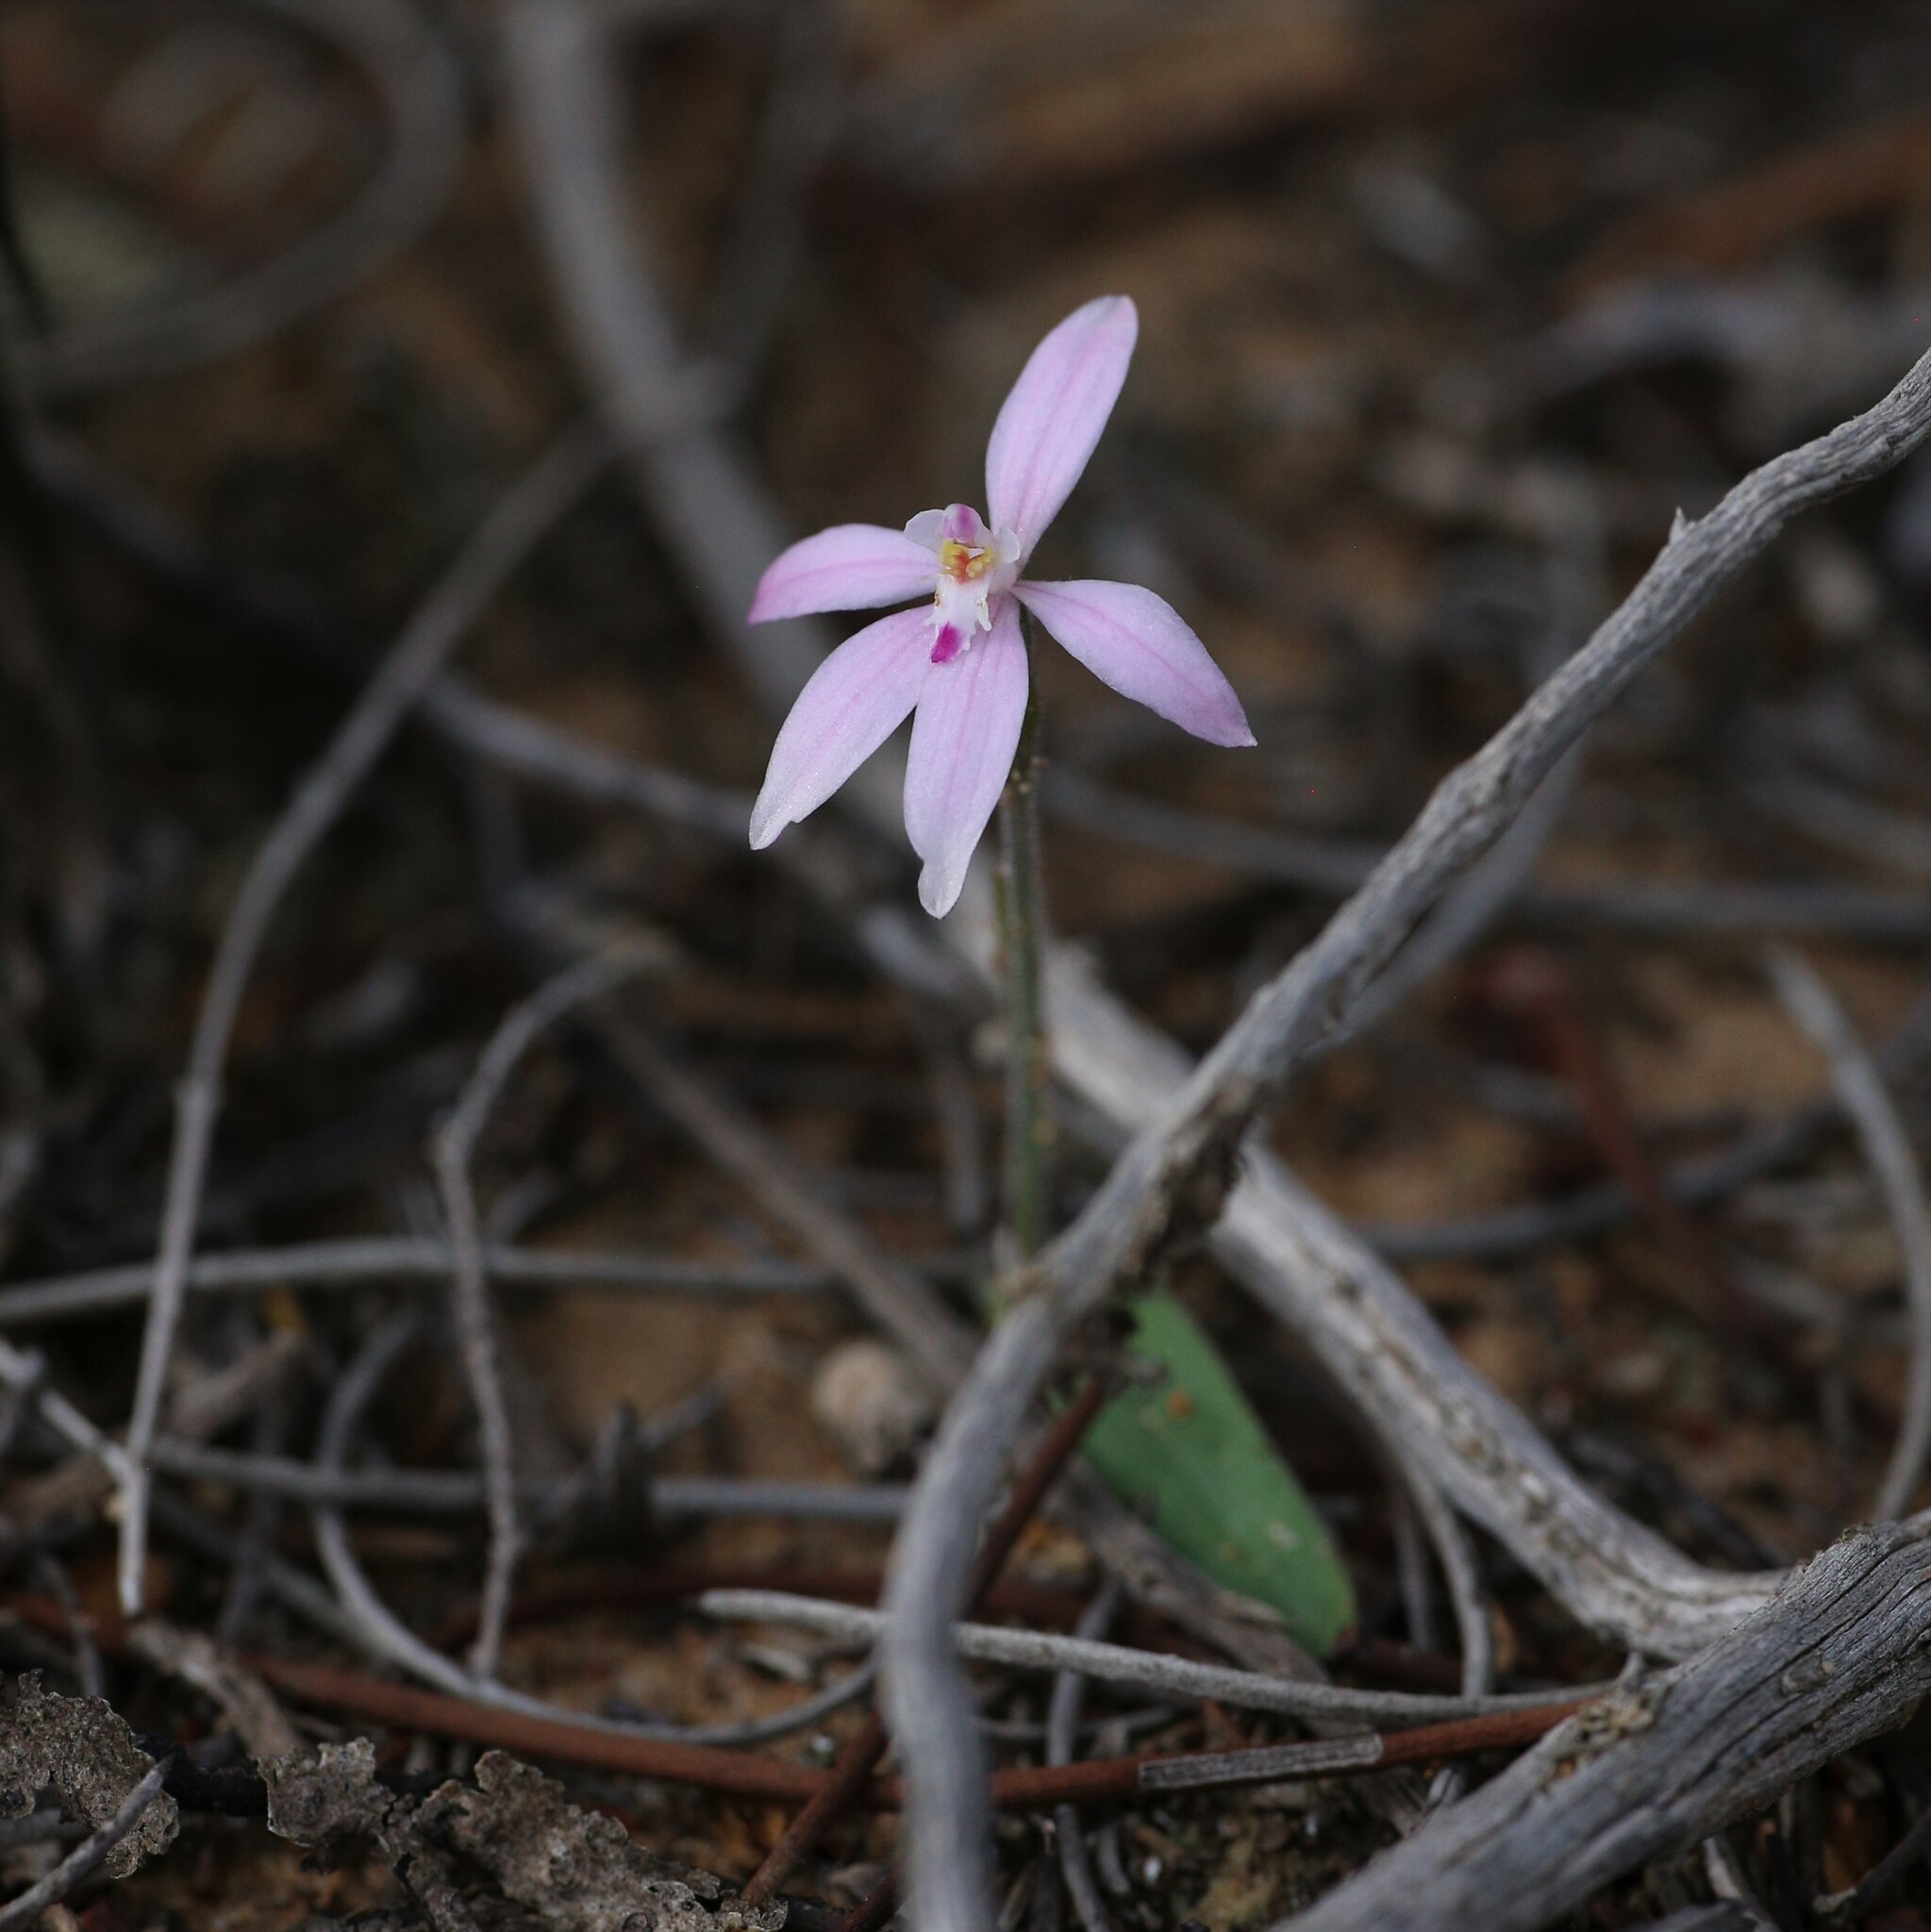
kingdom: Plantae
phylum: Tracheophyta
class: Liliopsida
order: Asparagales
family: Orchidaceae
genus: Caladenia
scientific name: Caladenia reptans
